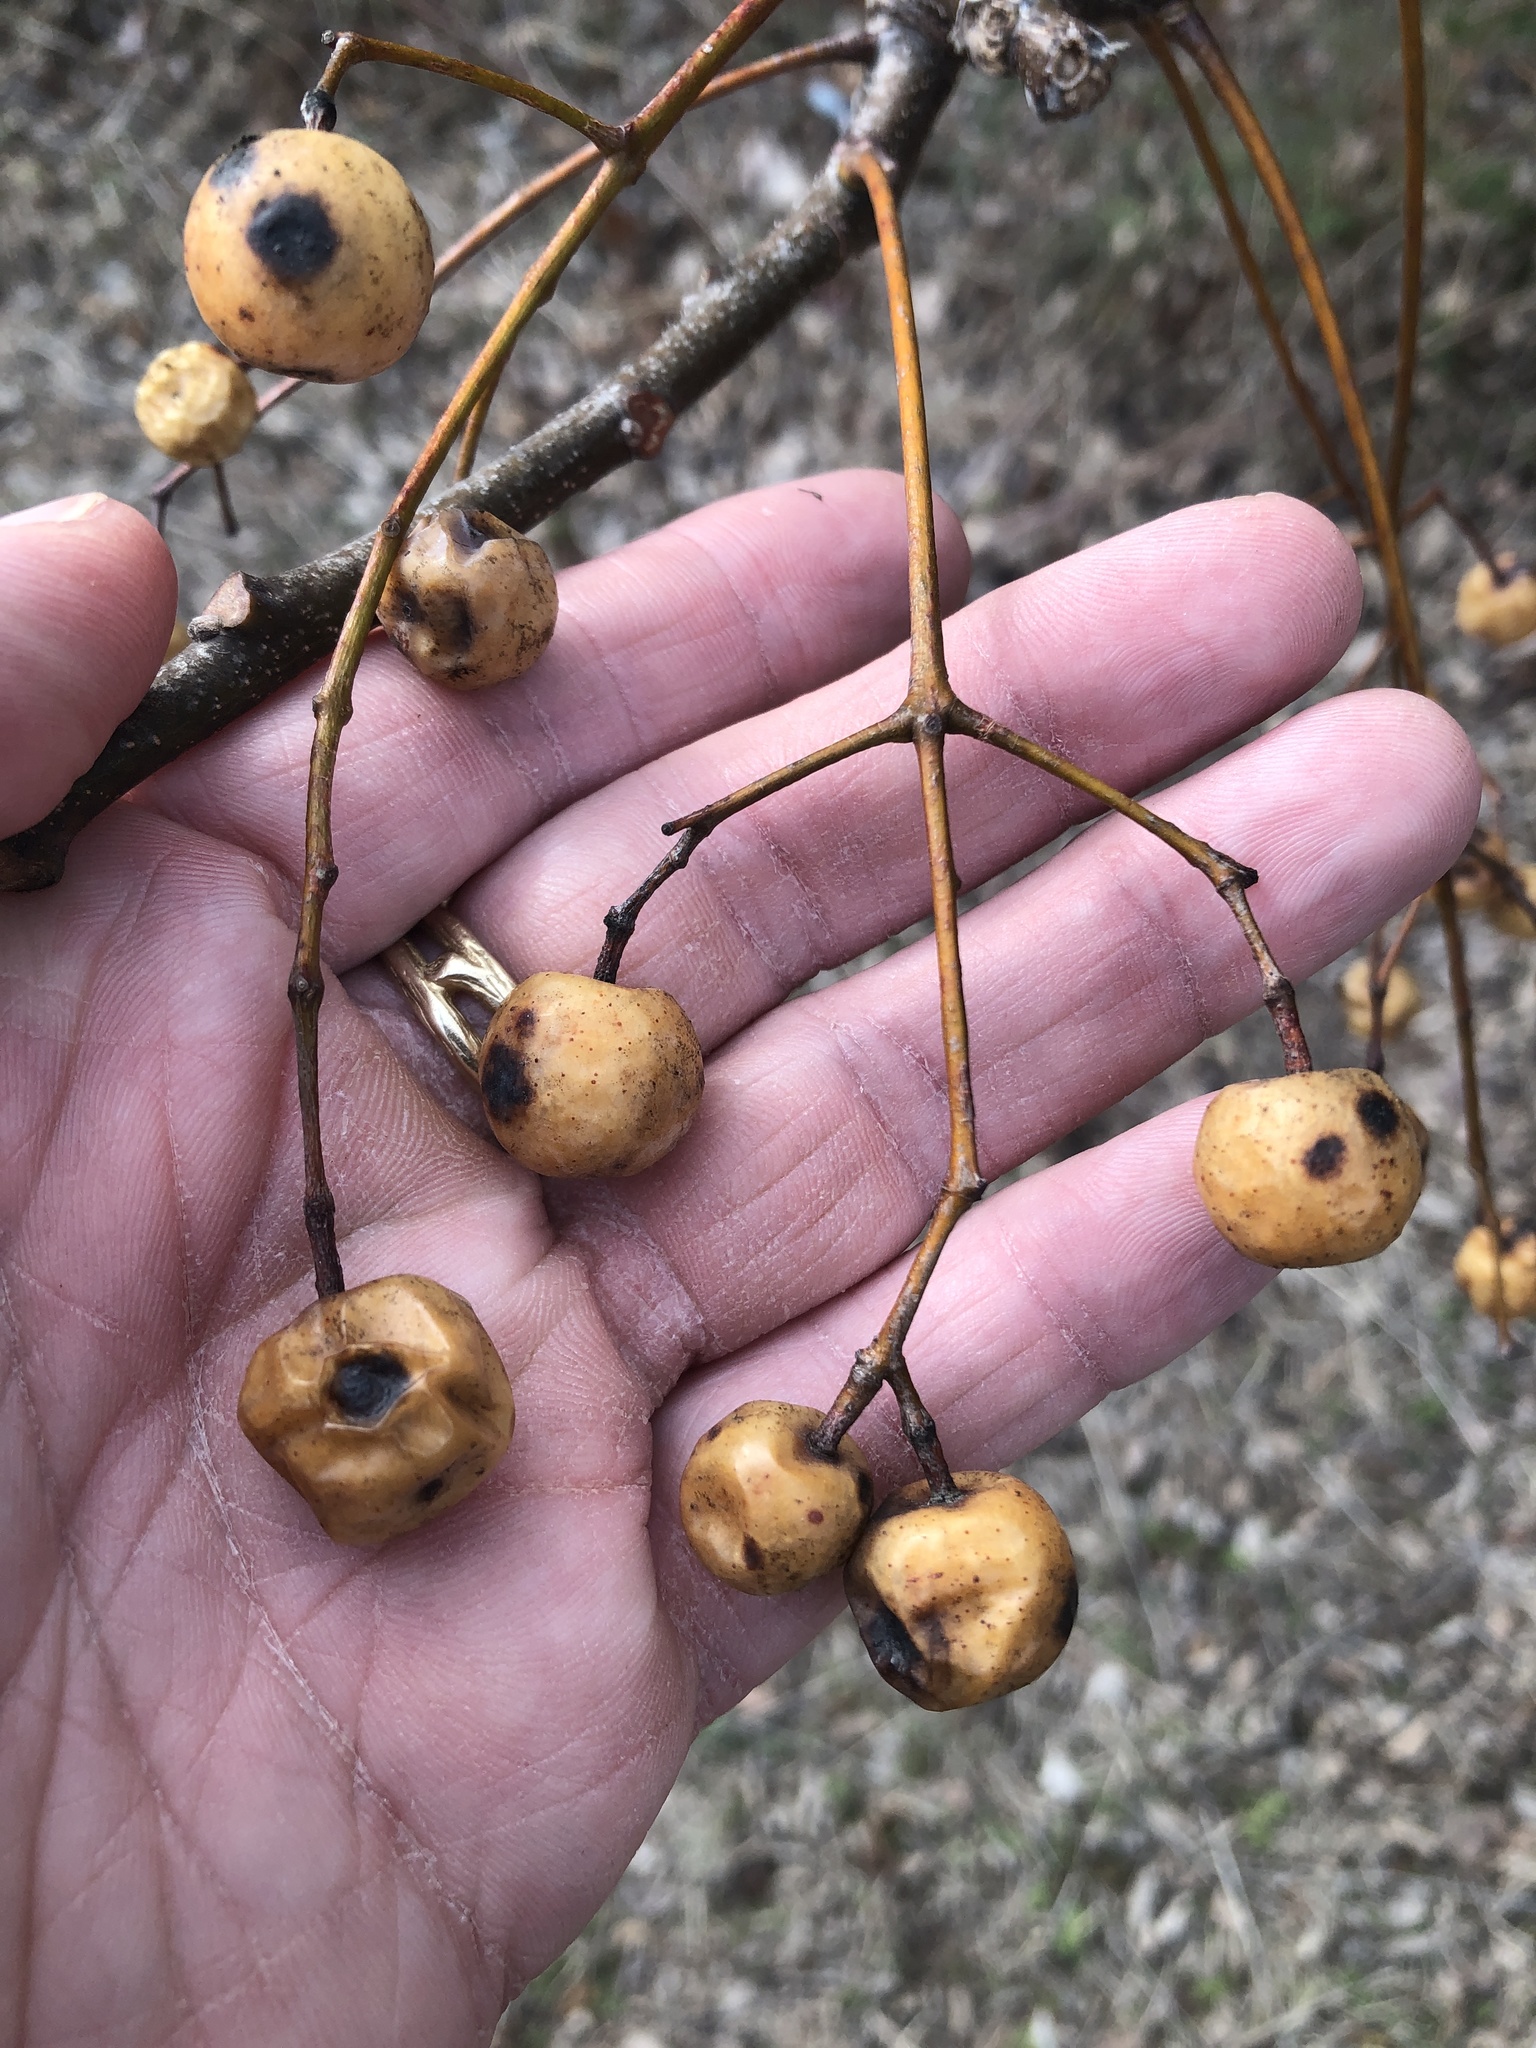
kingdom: Plantae
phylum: Tracheophyta
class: Magnoliopsida
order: Sapindales
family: Meliaceae
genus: Melia
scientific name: Melia azedarach
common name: Chinaberrytree
